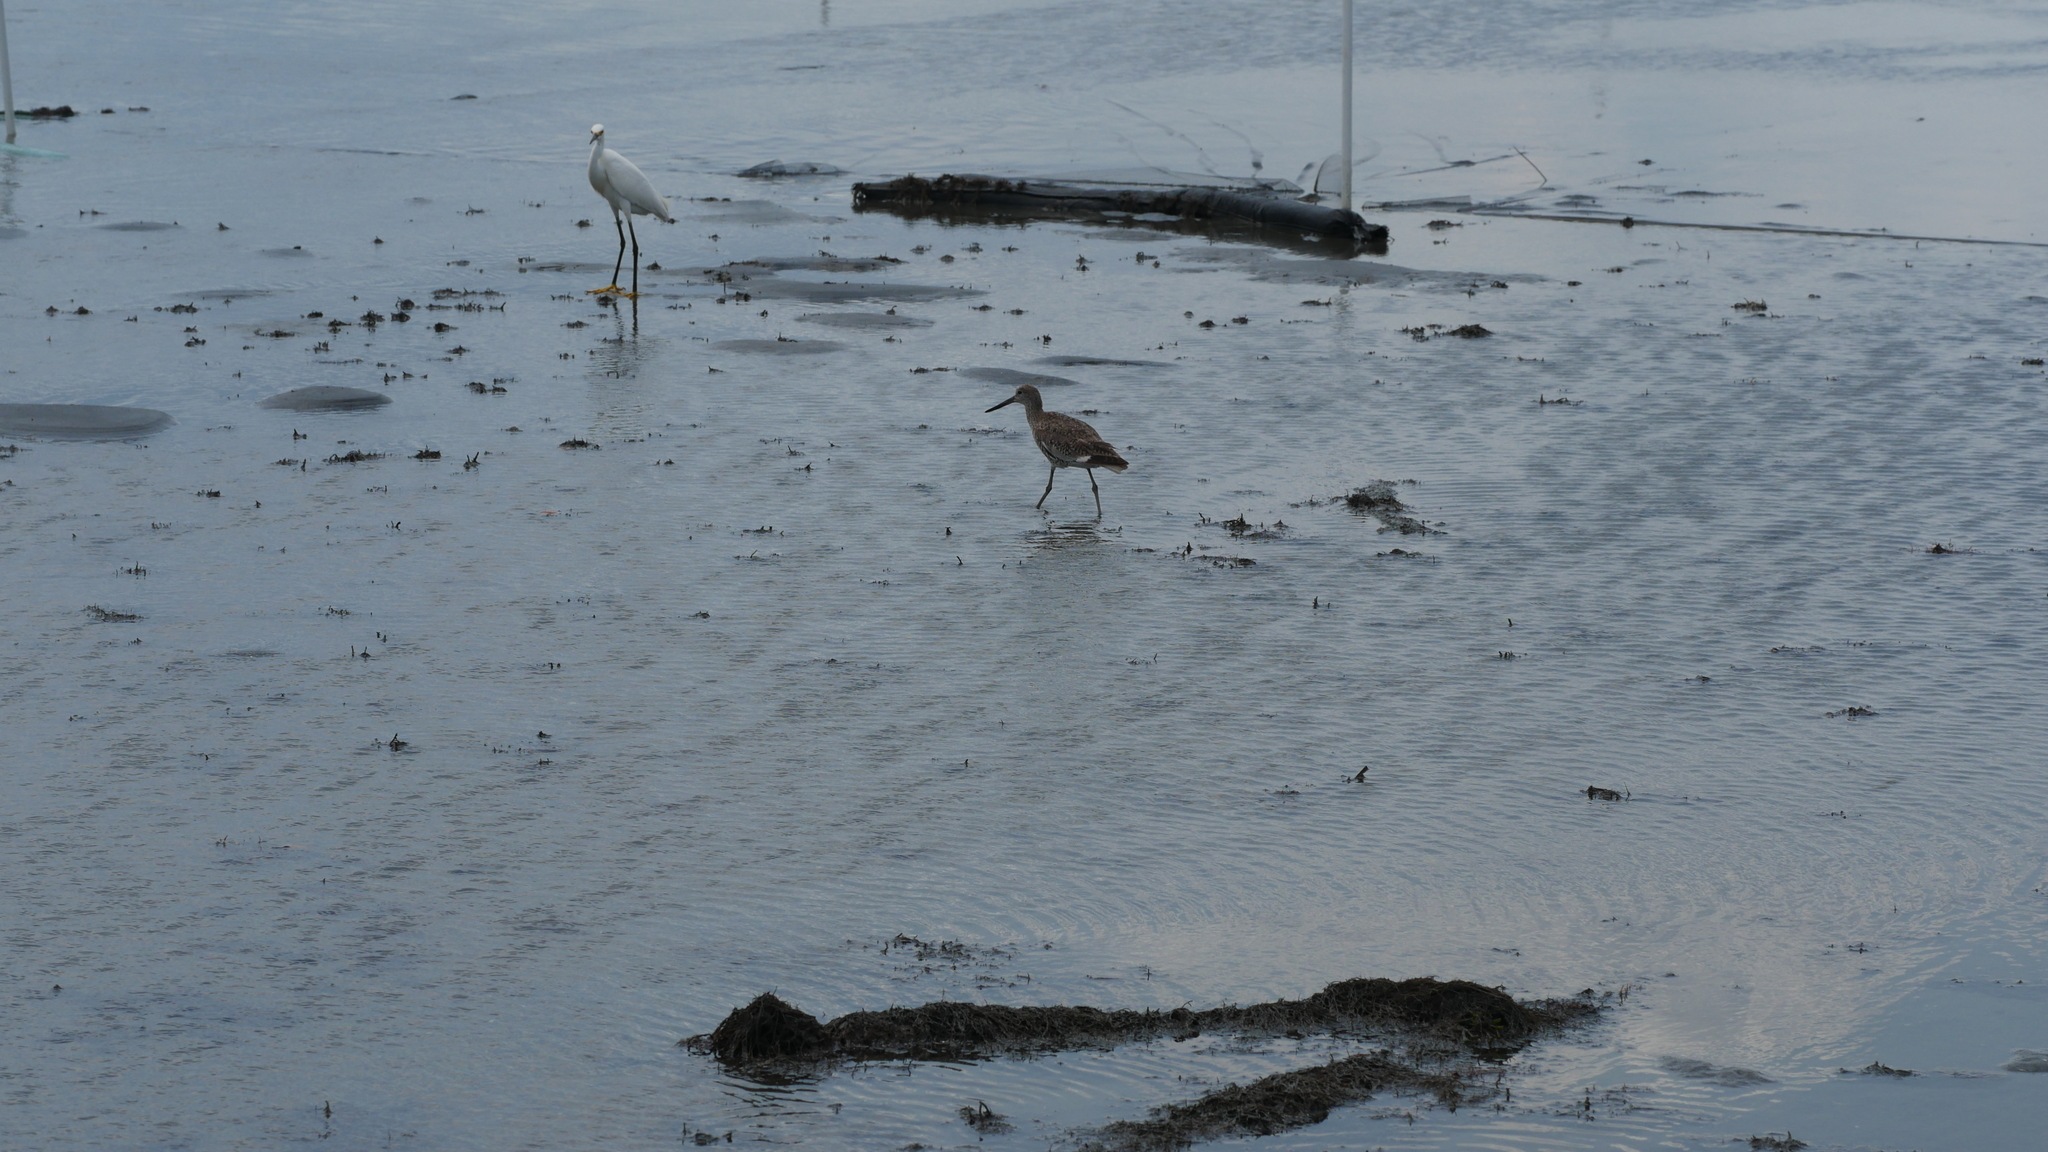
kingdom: Animalia
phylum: Chordata
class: Aves
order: Charadriiformes
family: Scolopacidae
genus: Tringa
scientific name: Tringa semipalmata
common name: Willet
